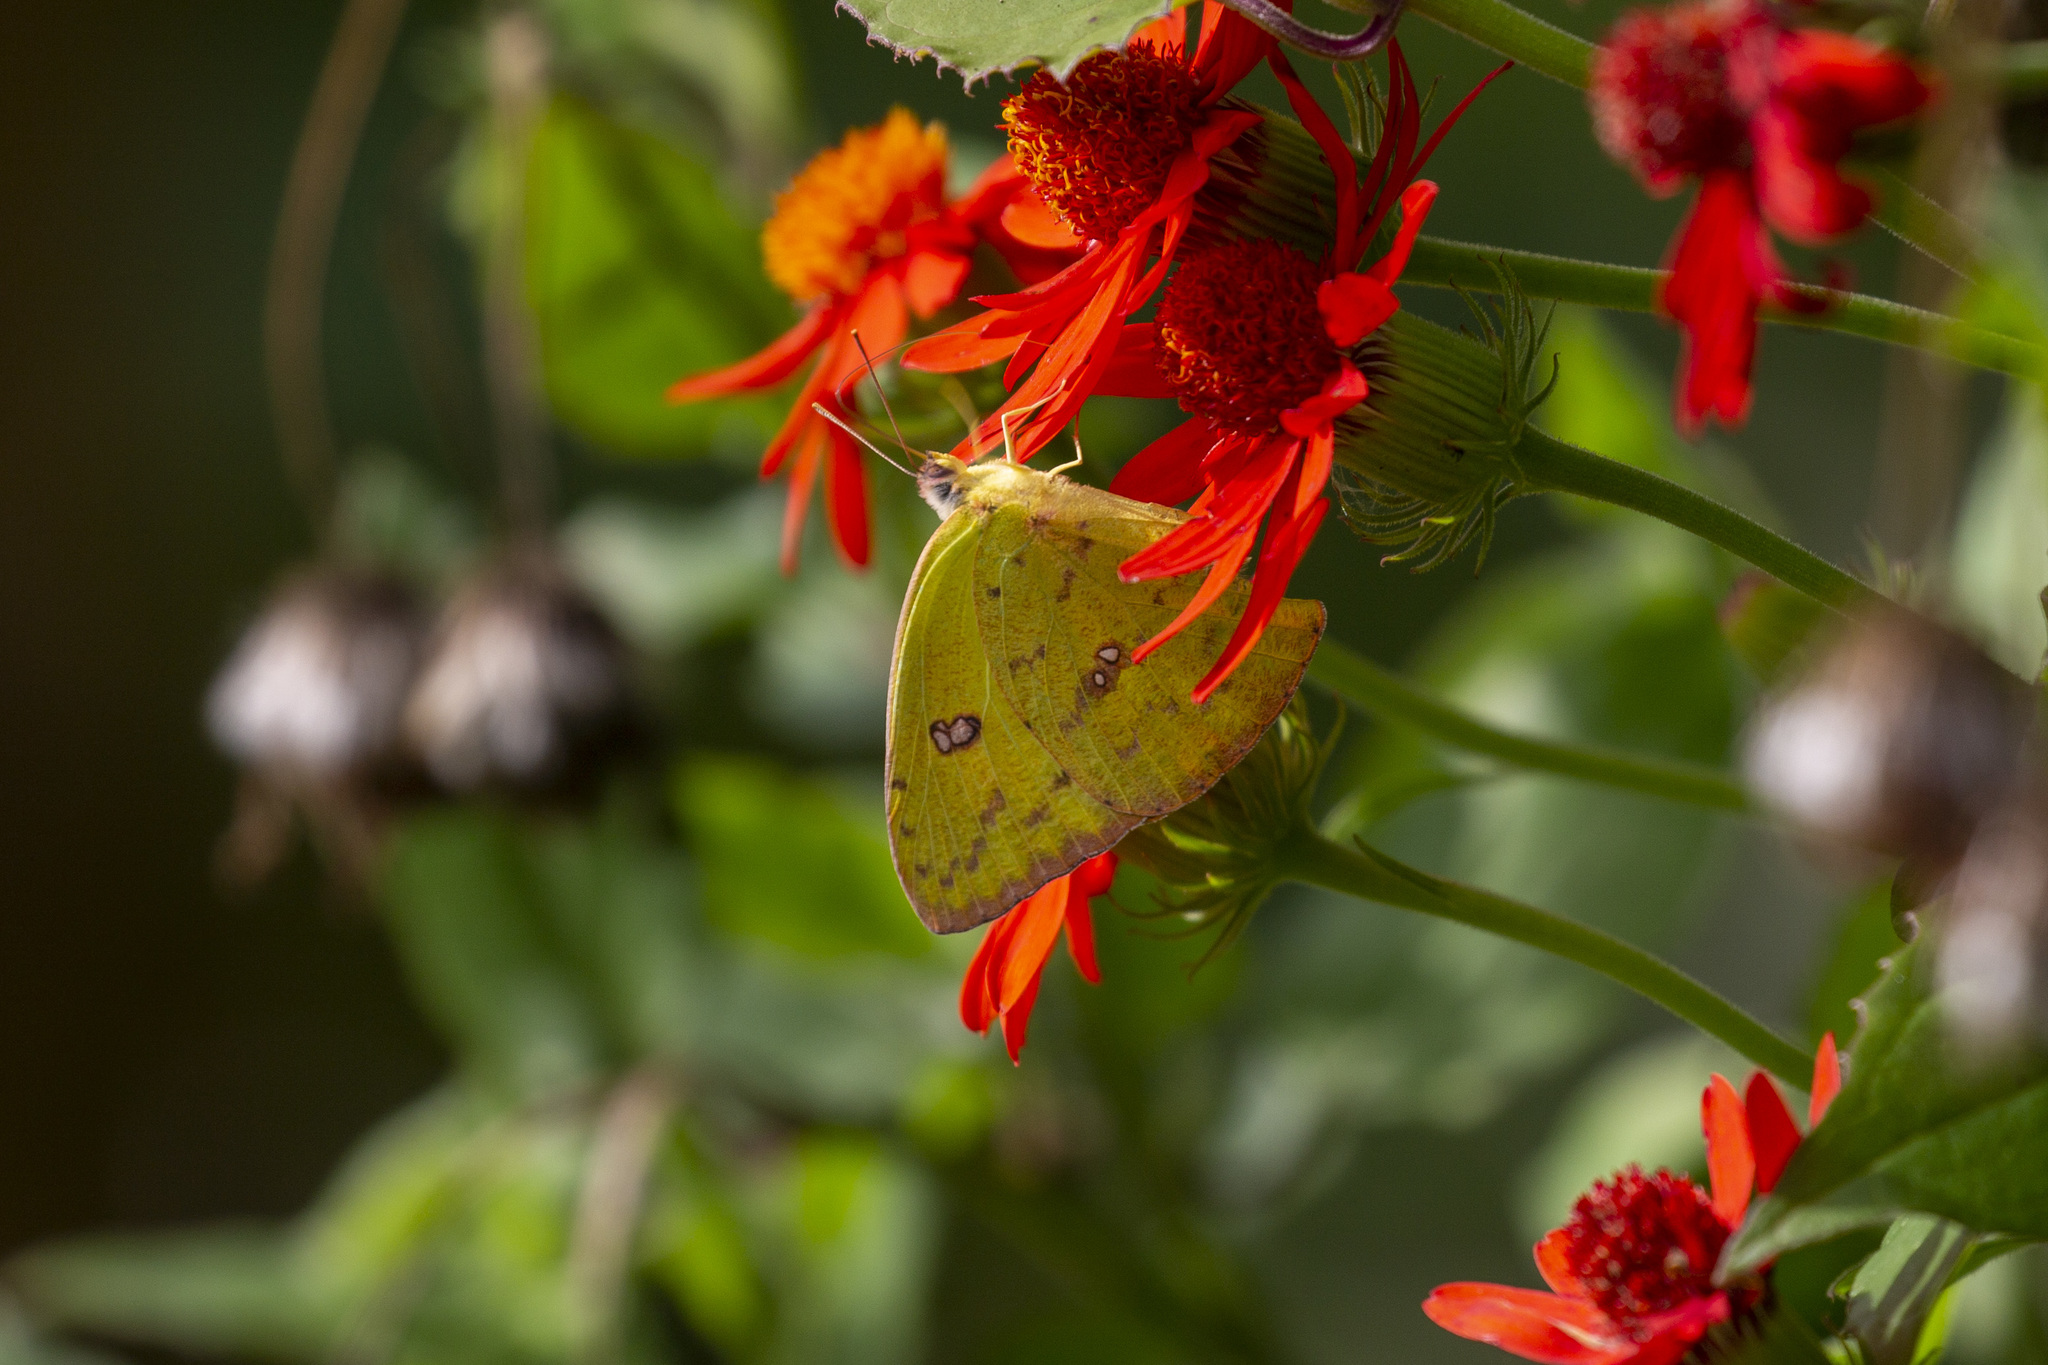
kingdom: Animalia
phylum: Arthropoda
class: Insecta
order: Lepidoptera
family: Pieridae
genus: Phoebis
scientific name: Phoebis marcellina
